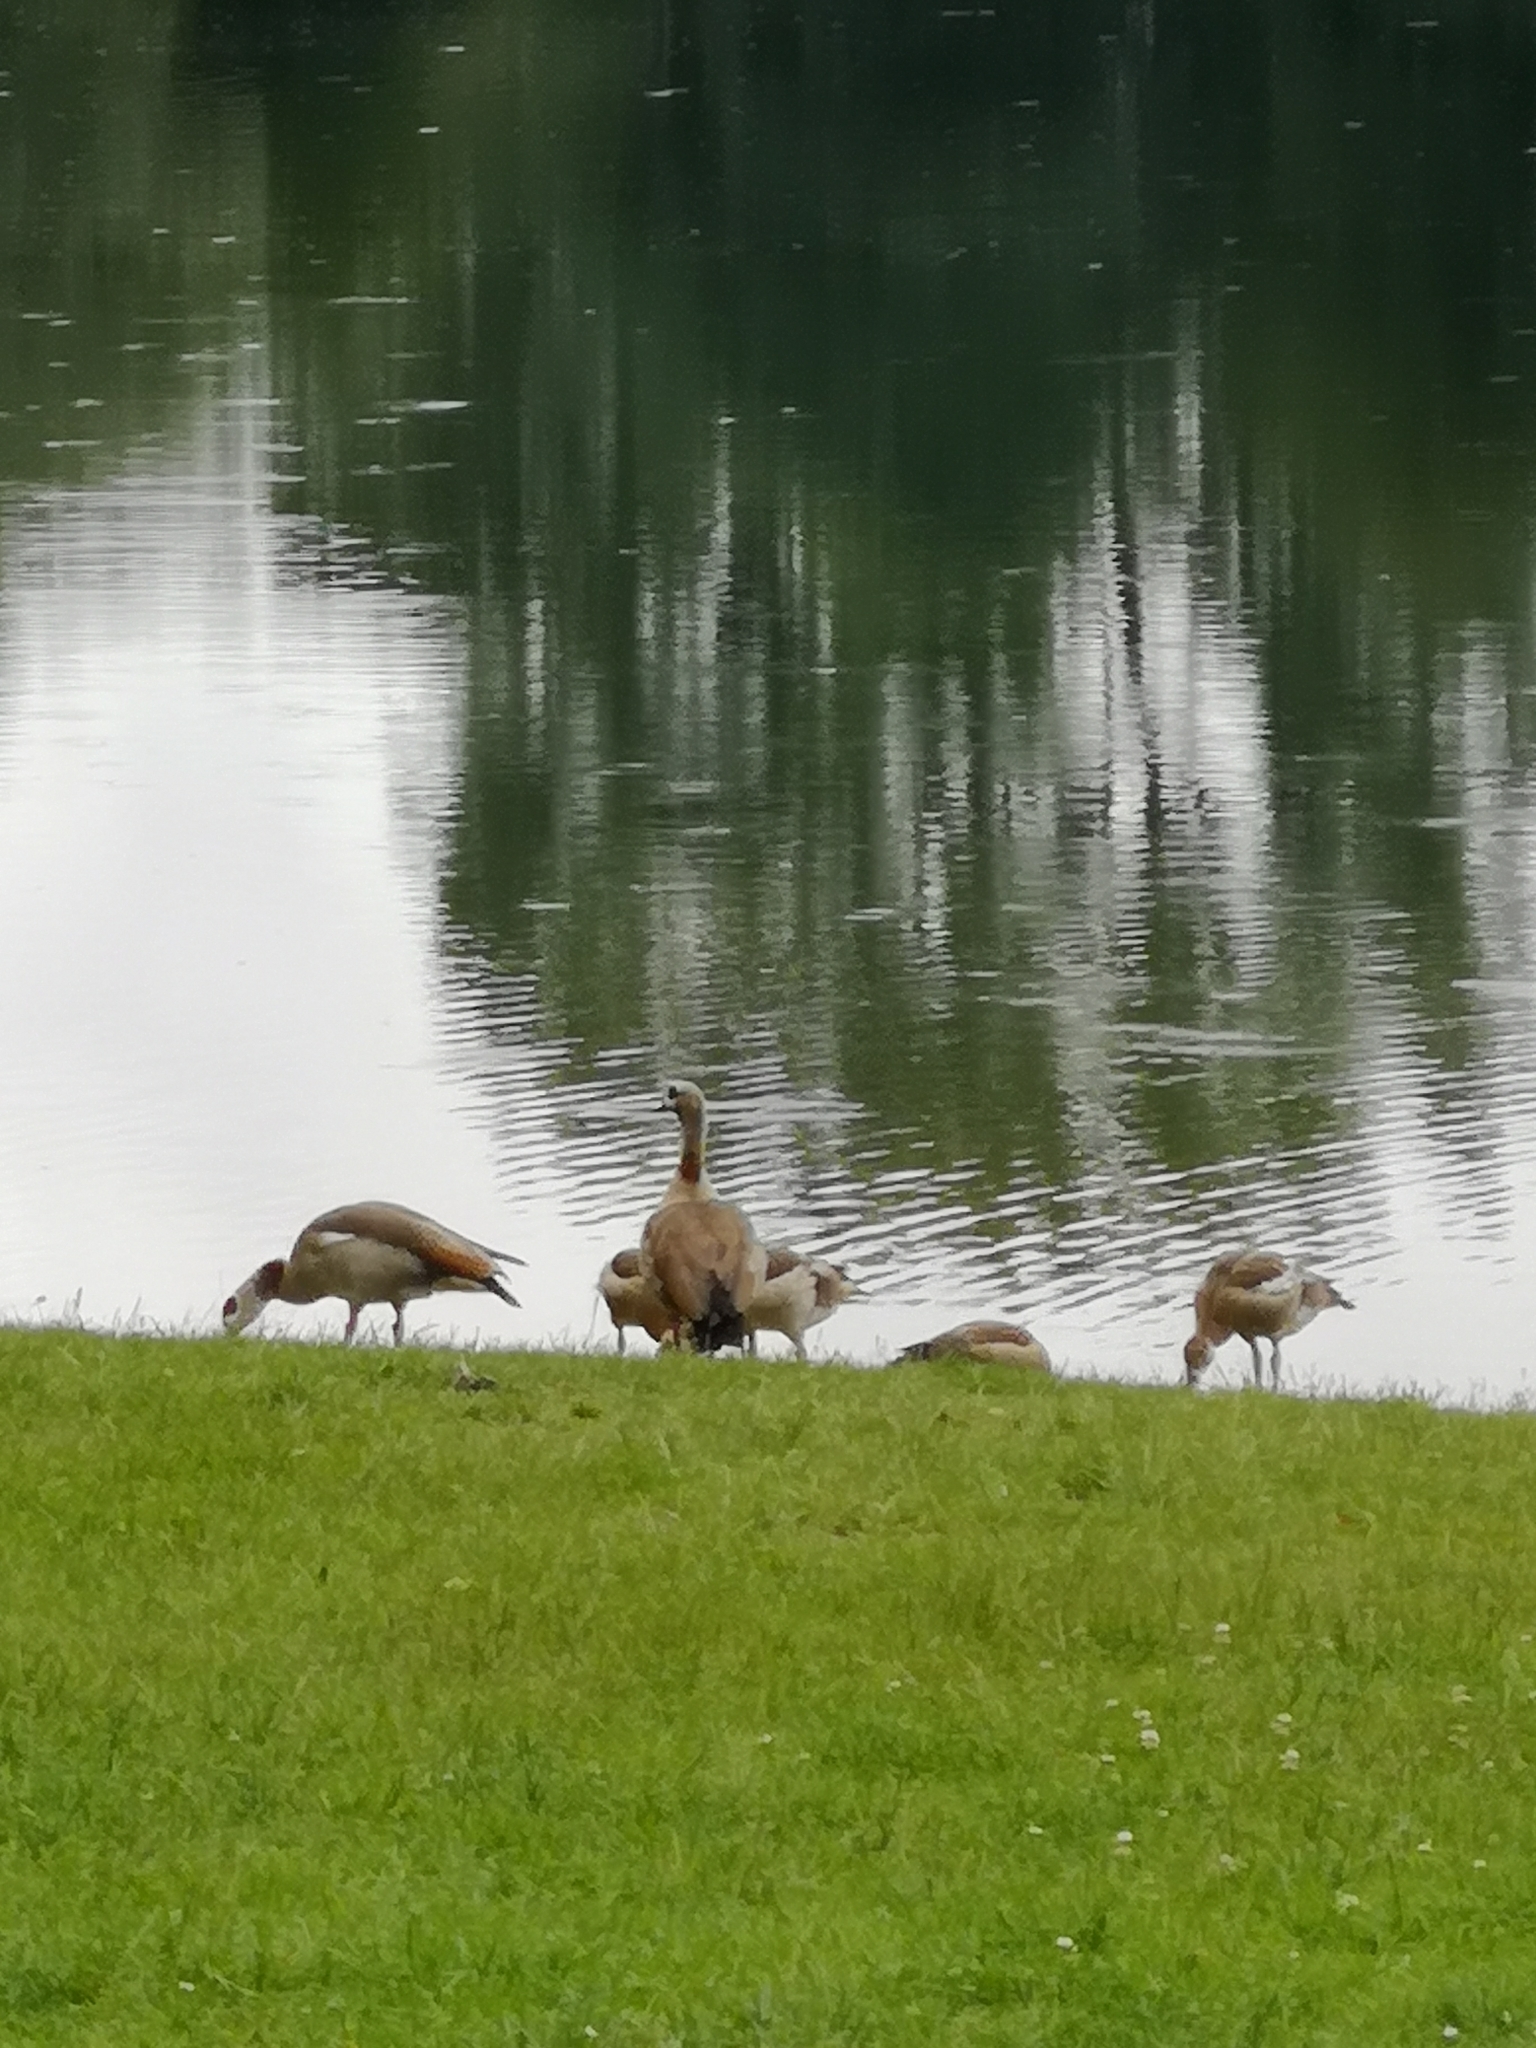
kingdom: Animalia
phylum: Chordata
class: Aves
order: Anseriformes
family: Anatidae
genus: Alopochen
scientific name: Alopochen aegyptiaca
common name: Egyptian goose
